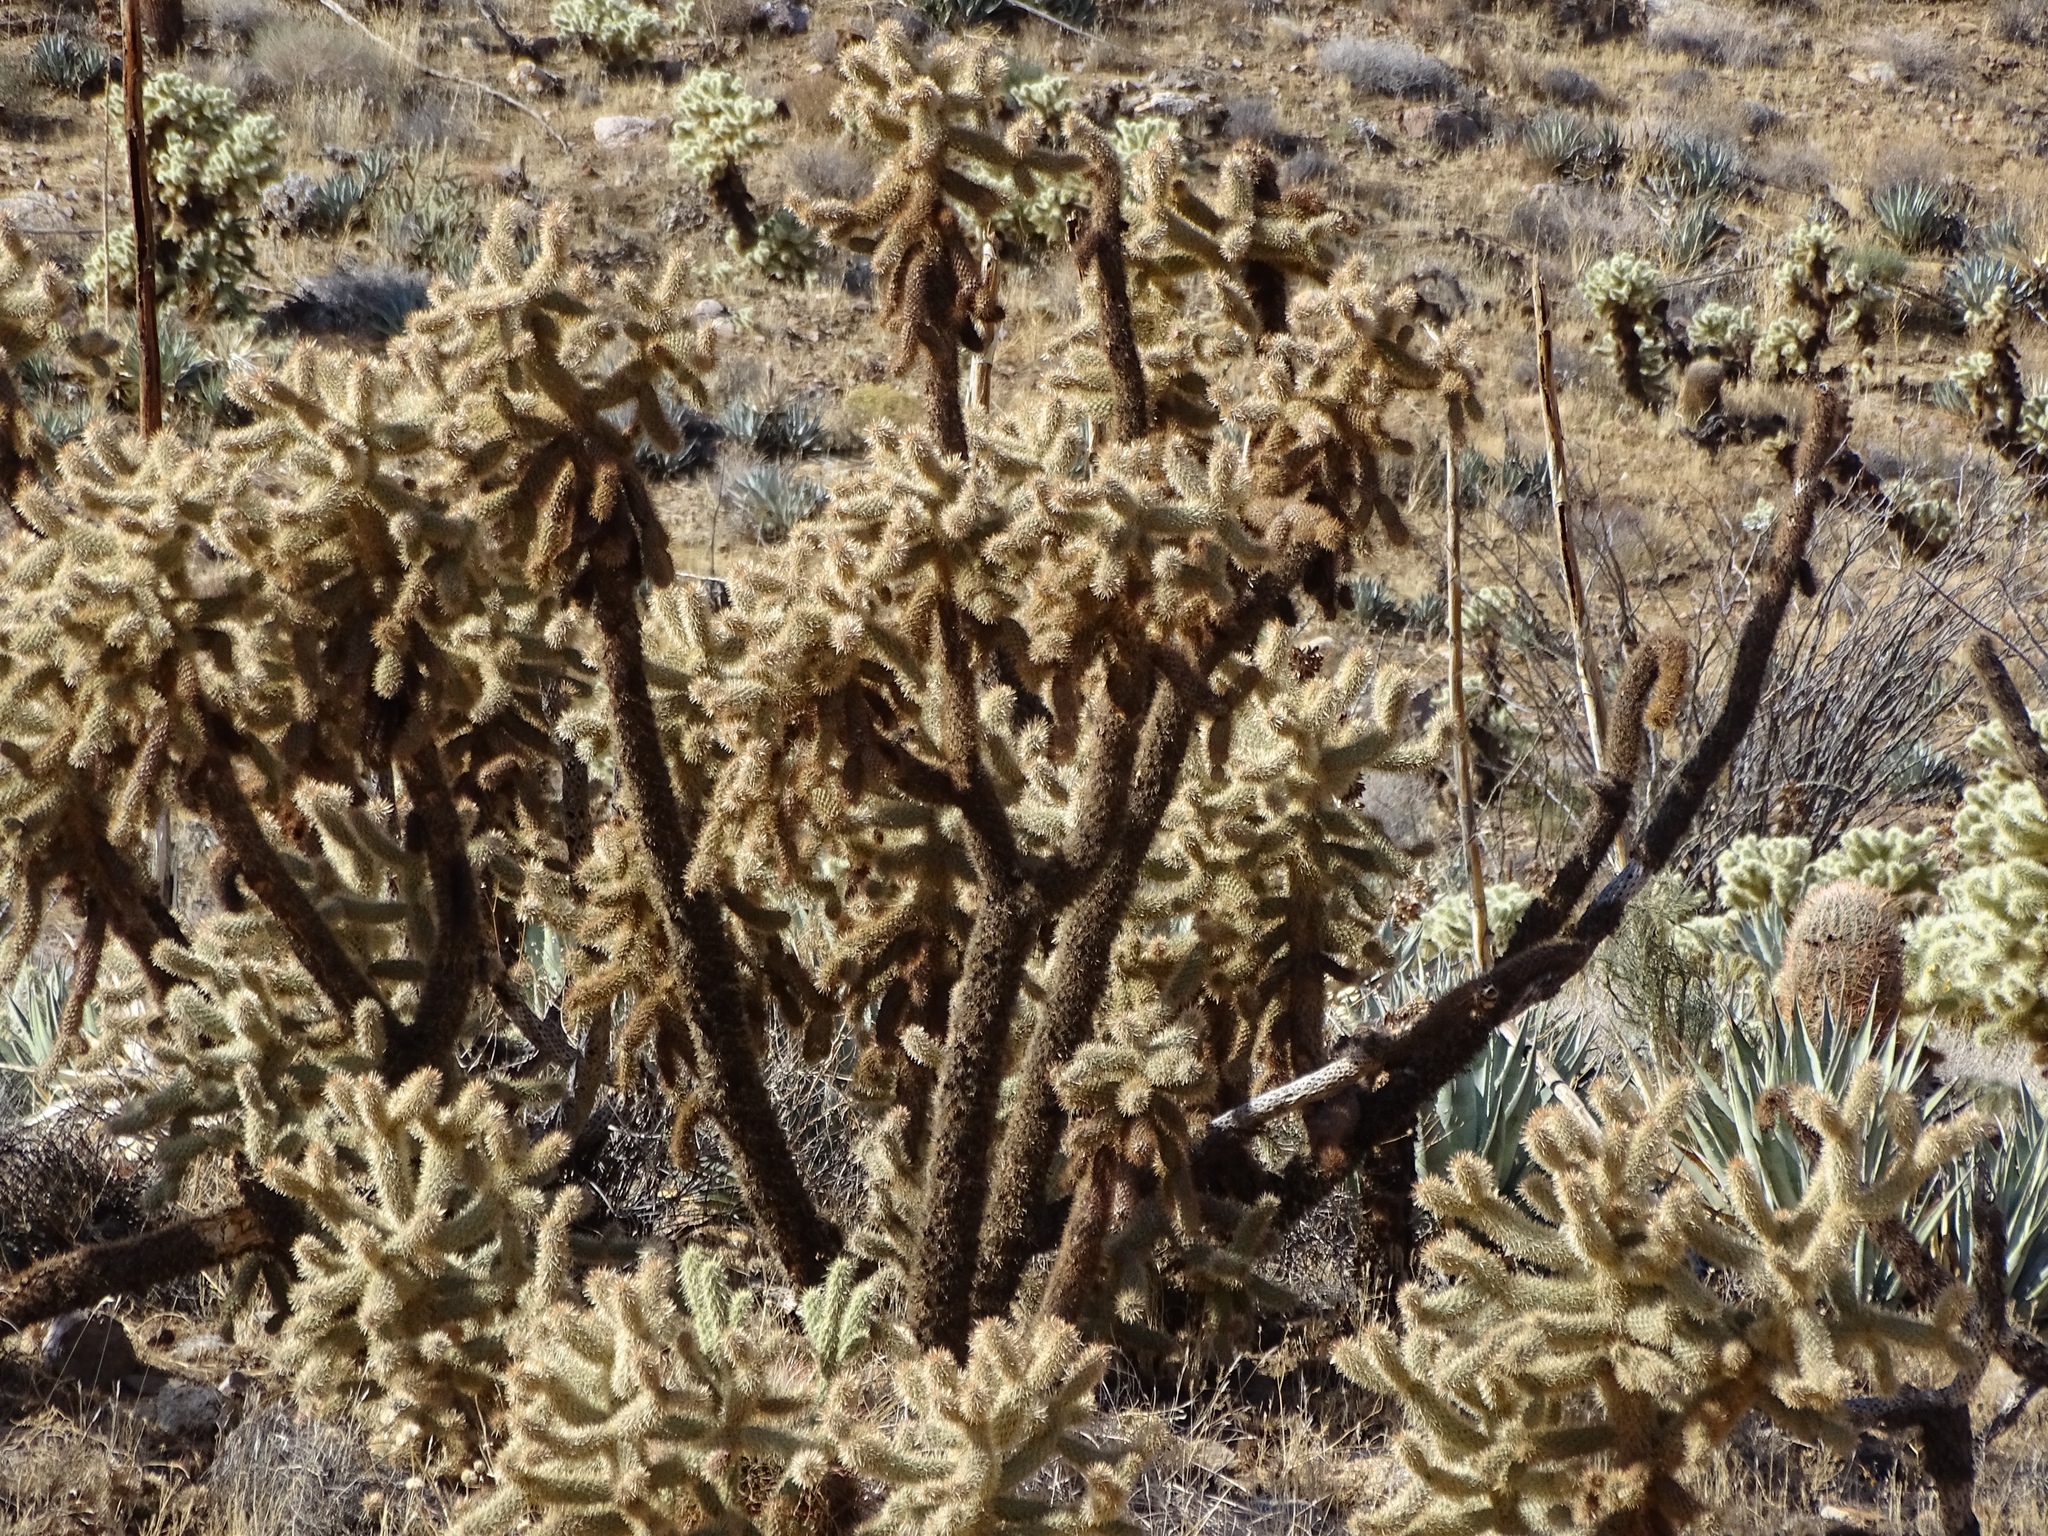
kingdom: Plantae
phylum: Tracheophyta
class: Magnoliopsida
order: Caryophyllales
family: Cactaceae
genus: Cylindropuntia
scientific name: Cylindropuntia fosbergii
